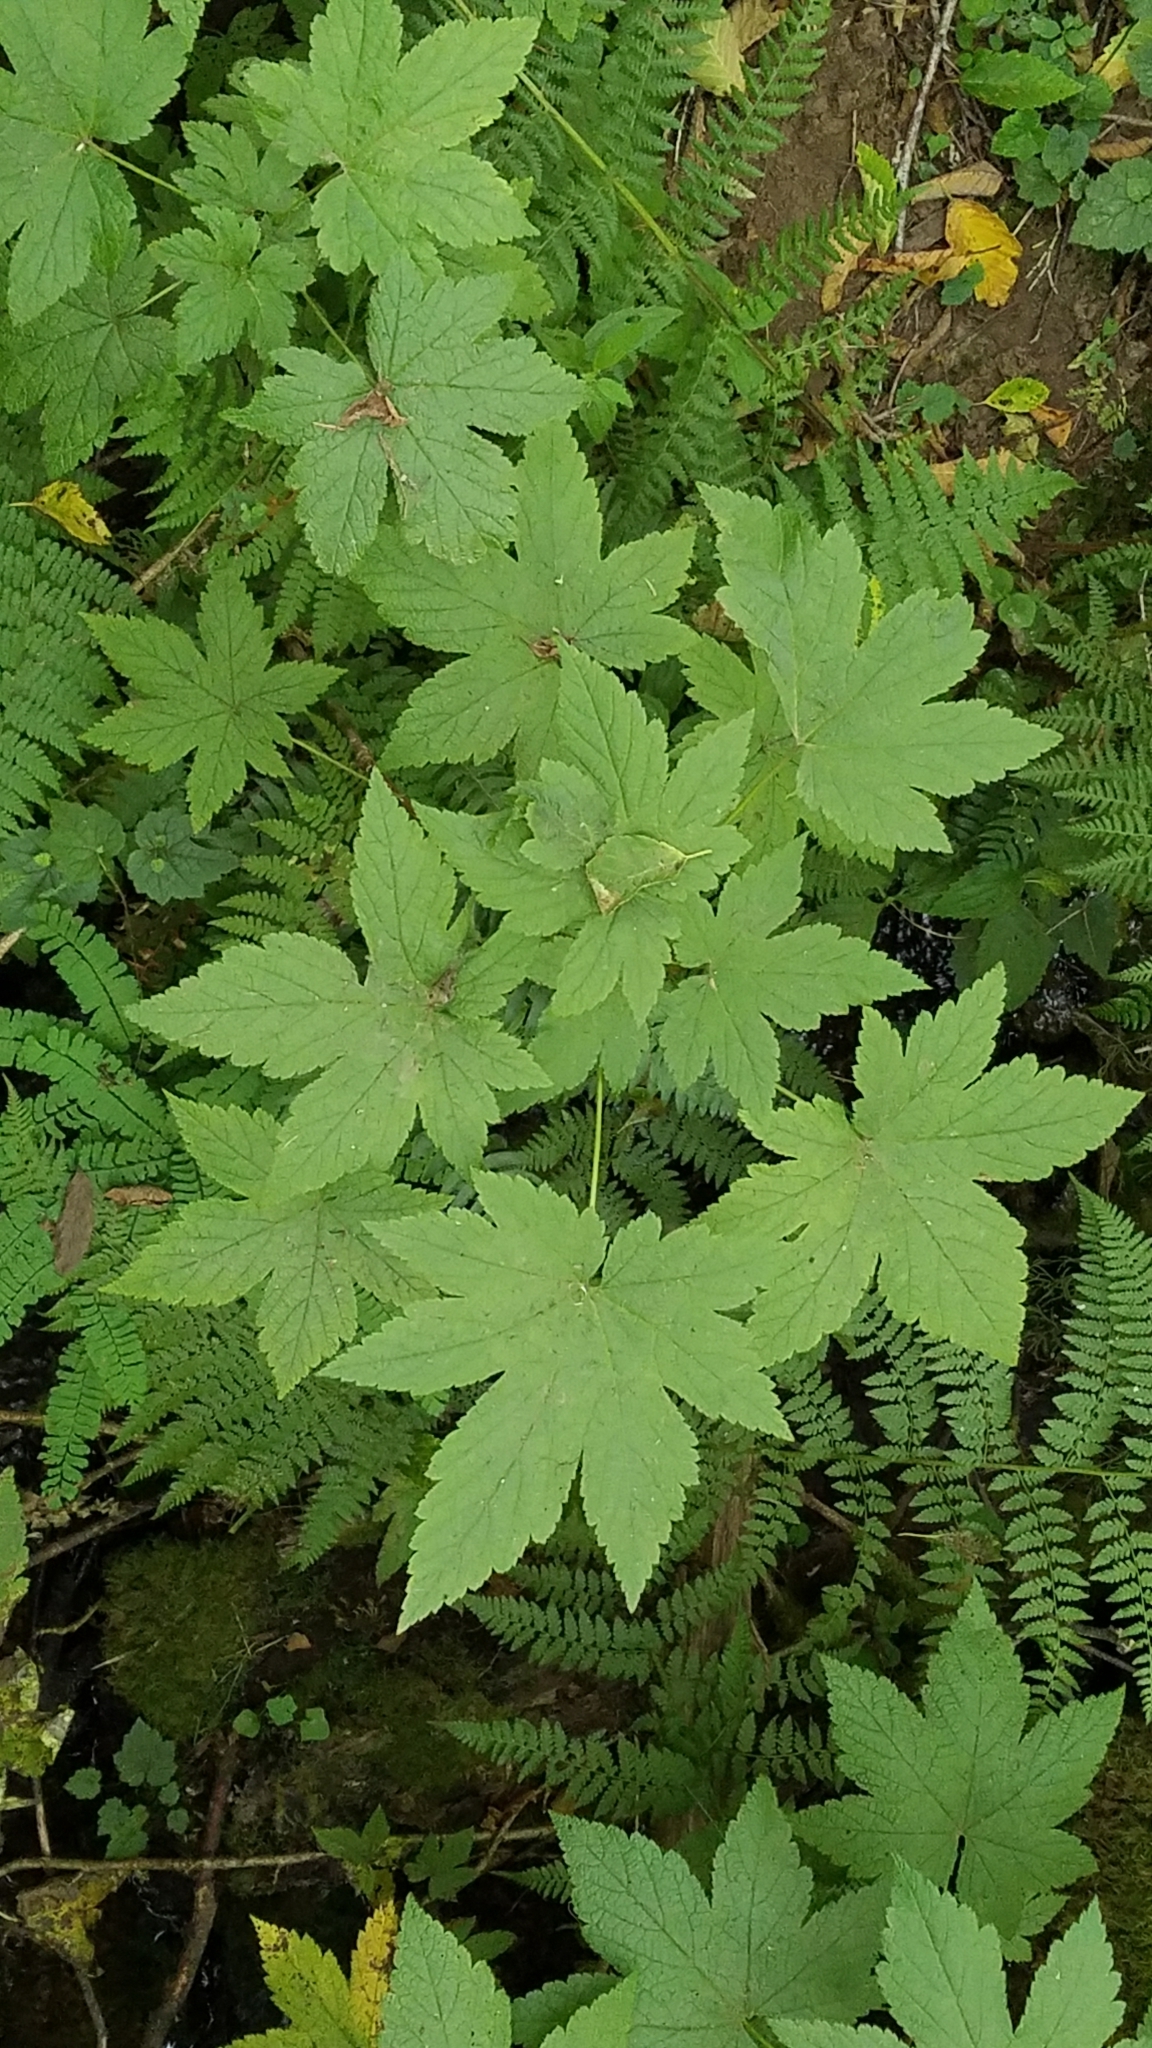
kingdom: Plantae
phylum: Tracheophyta
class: Magnoliopsida
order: Saxifragales
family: Grossulariaceae
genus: Ribes
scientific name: Ribes bracteosum
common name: California black currant
